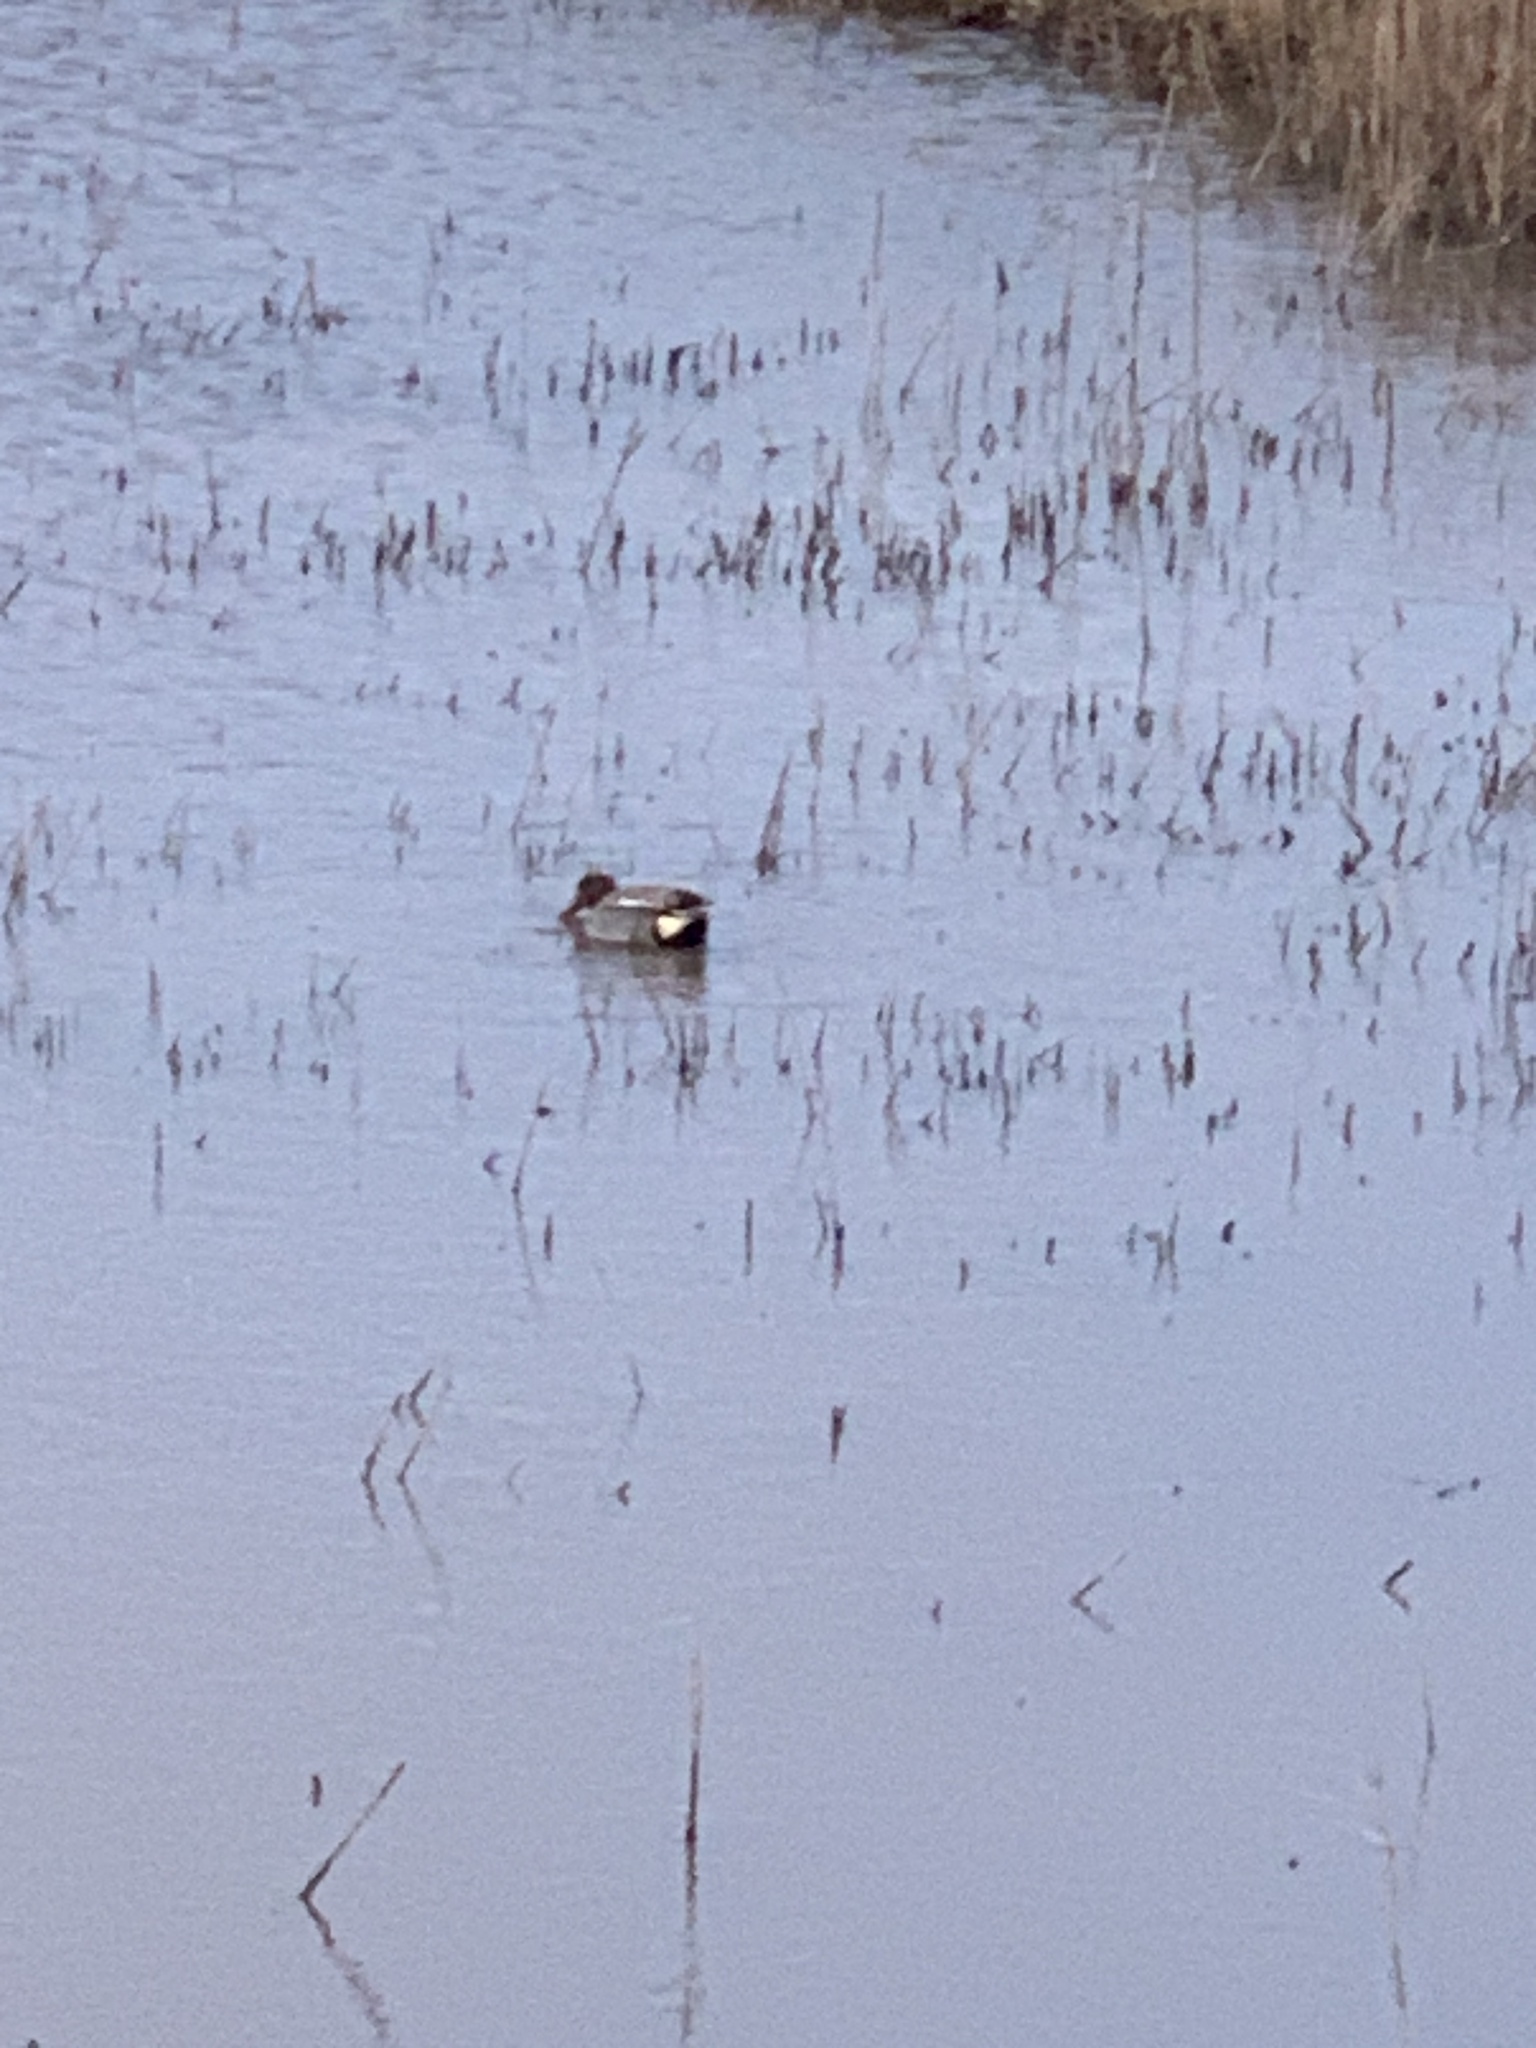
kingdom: Animalia
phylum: Chordata
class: Aves
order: Anseriformes
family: Anatidae
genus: Anas
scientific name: Anas crecca
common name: Eurasian teal
